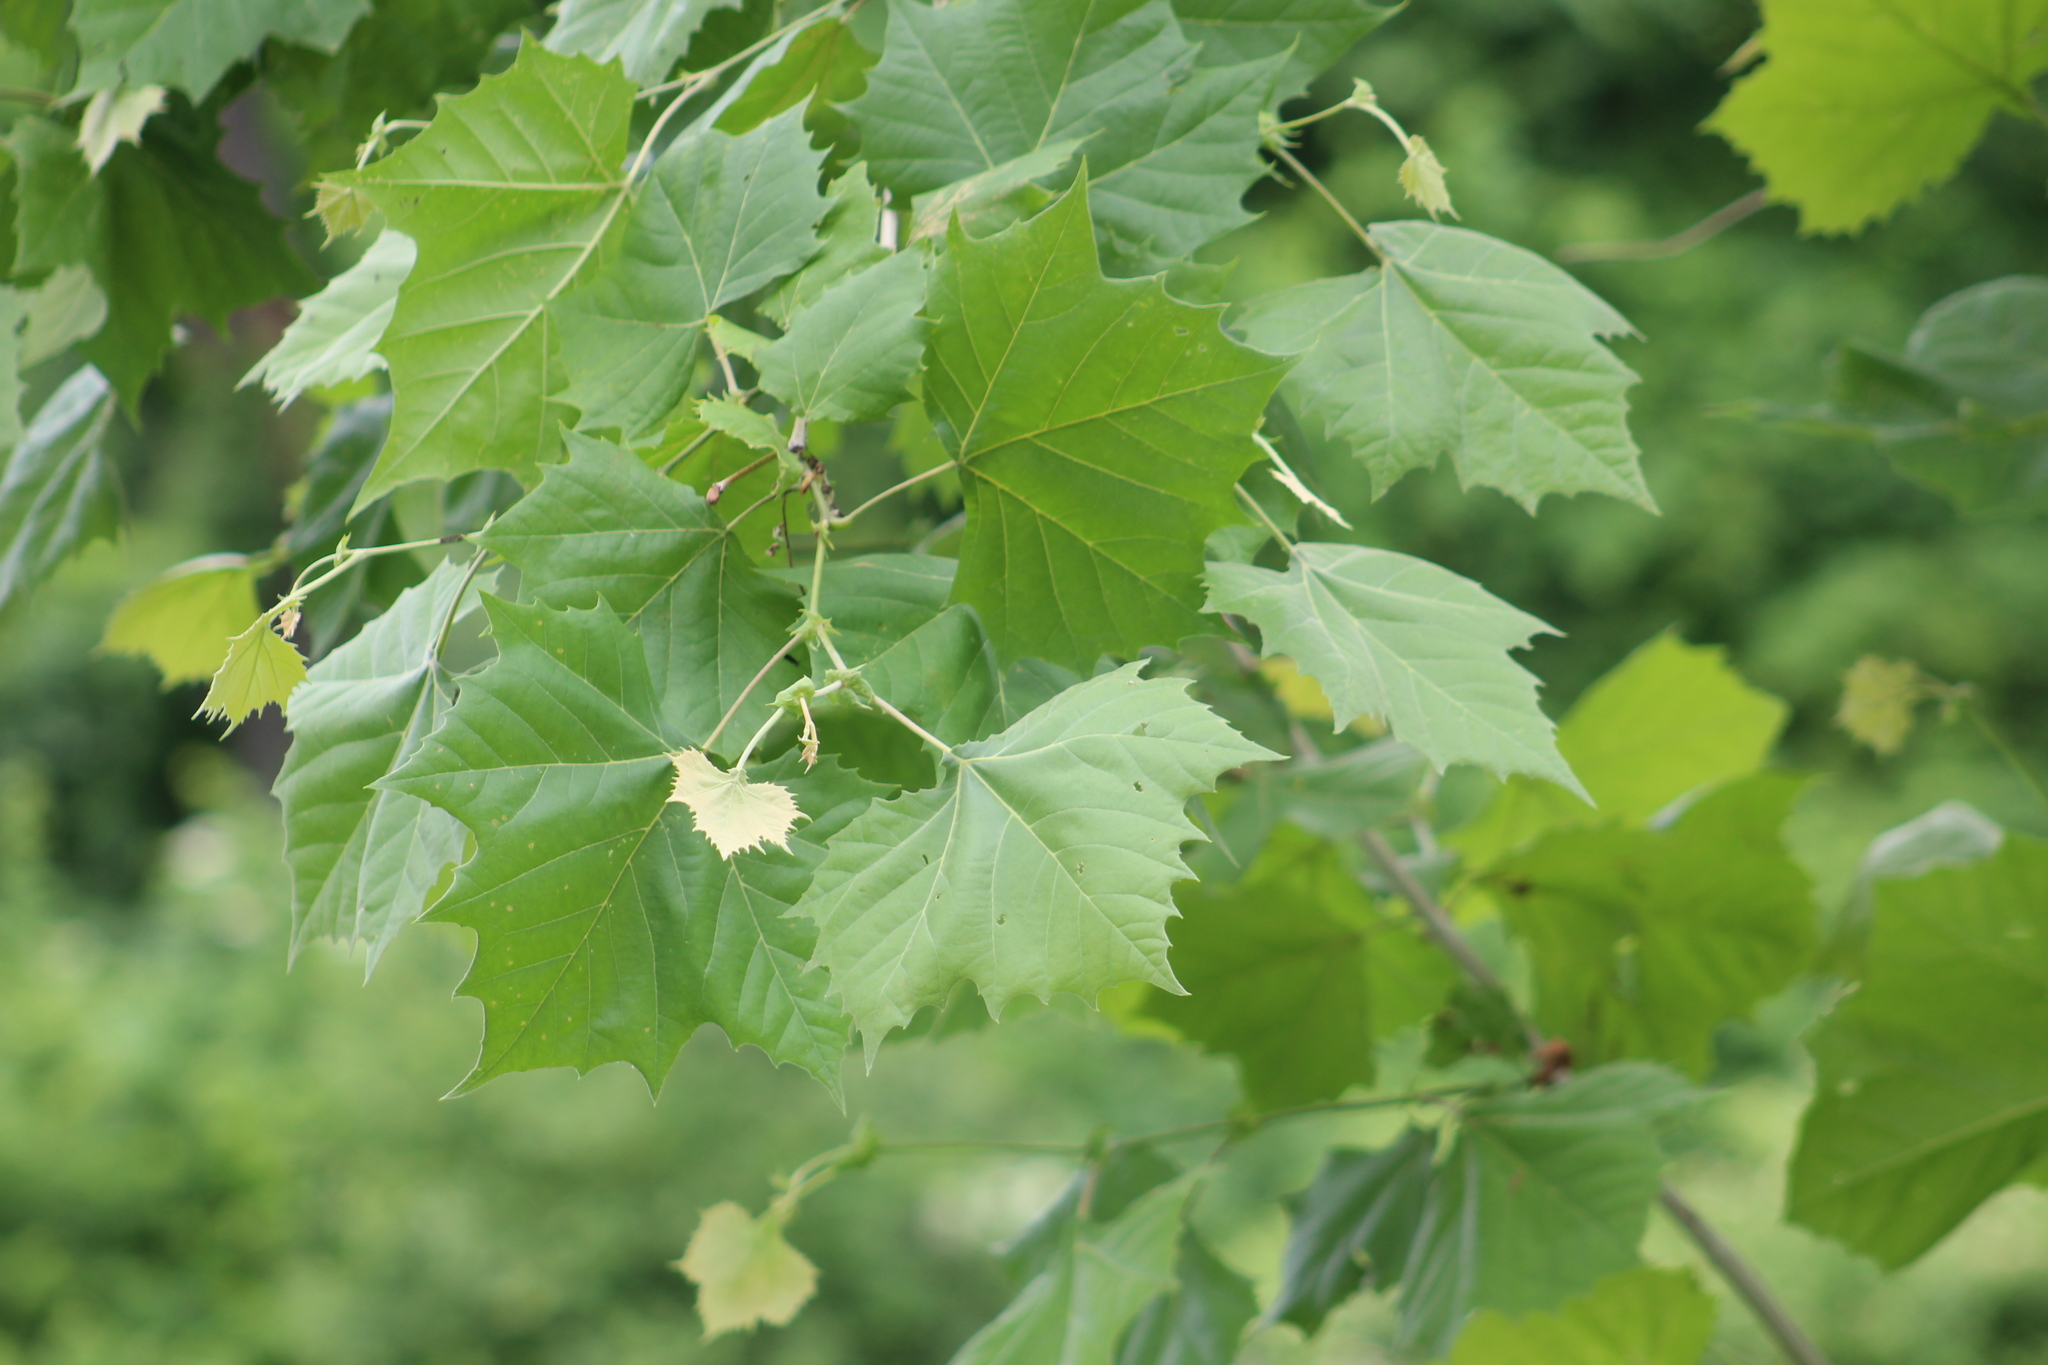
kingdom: Plantae
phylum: Tracheophyta
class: Magnoliopsida
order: Proteales
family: Platanaceae
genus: Platanus
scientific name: Platanus occidentalis
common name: American sycamore
